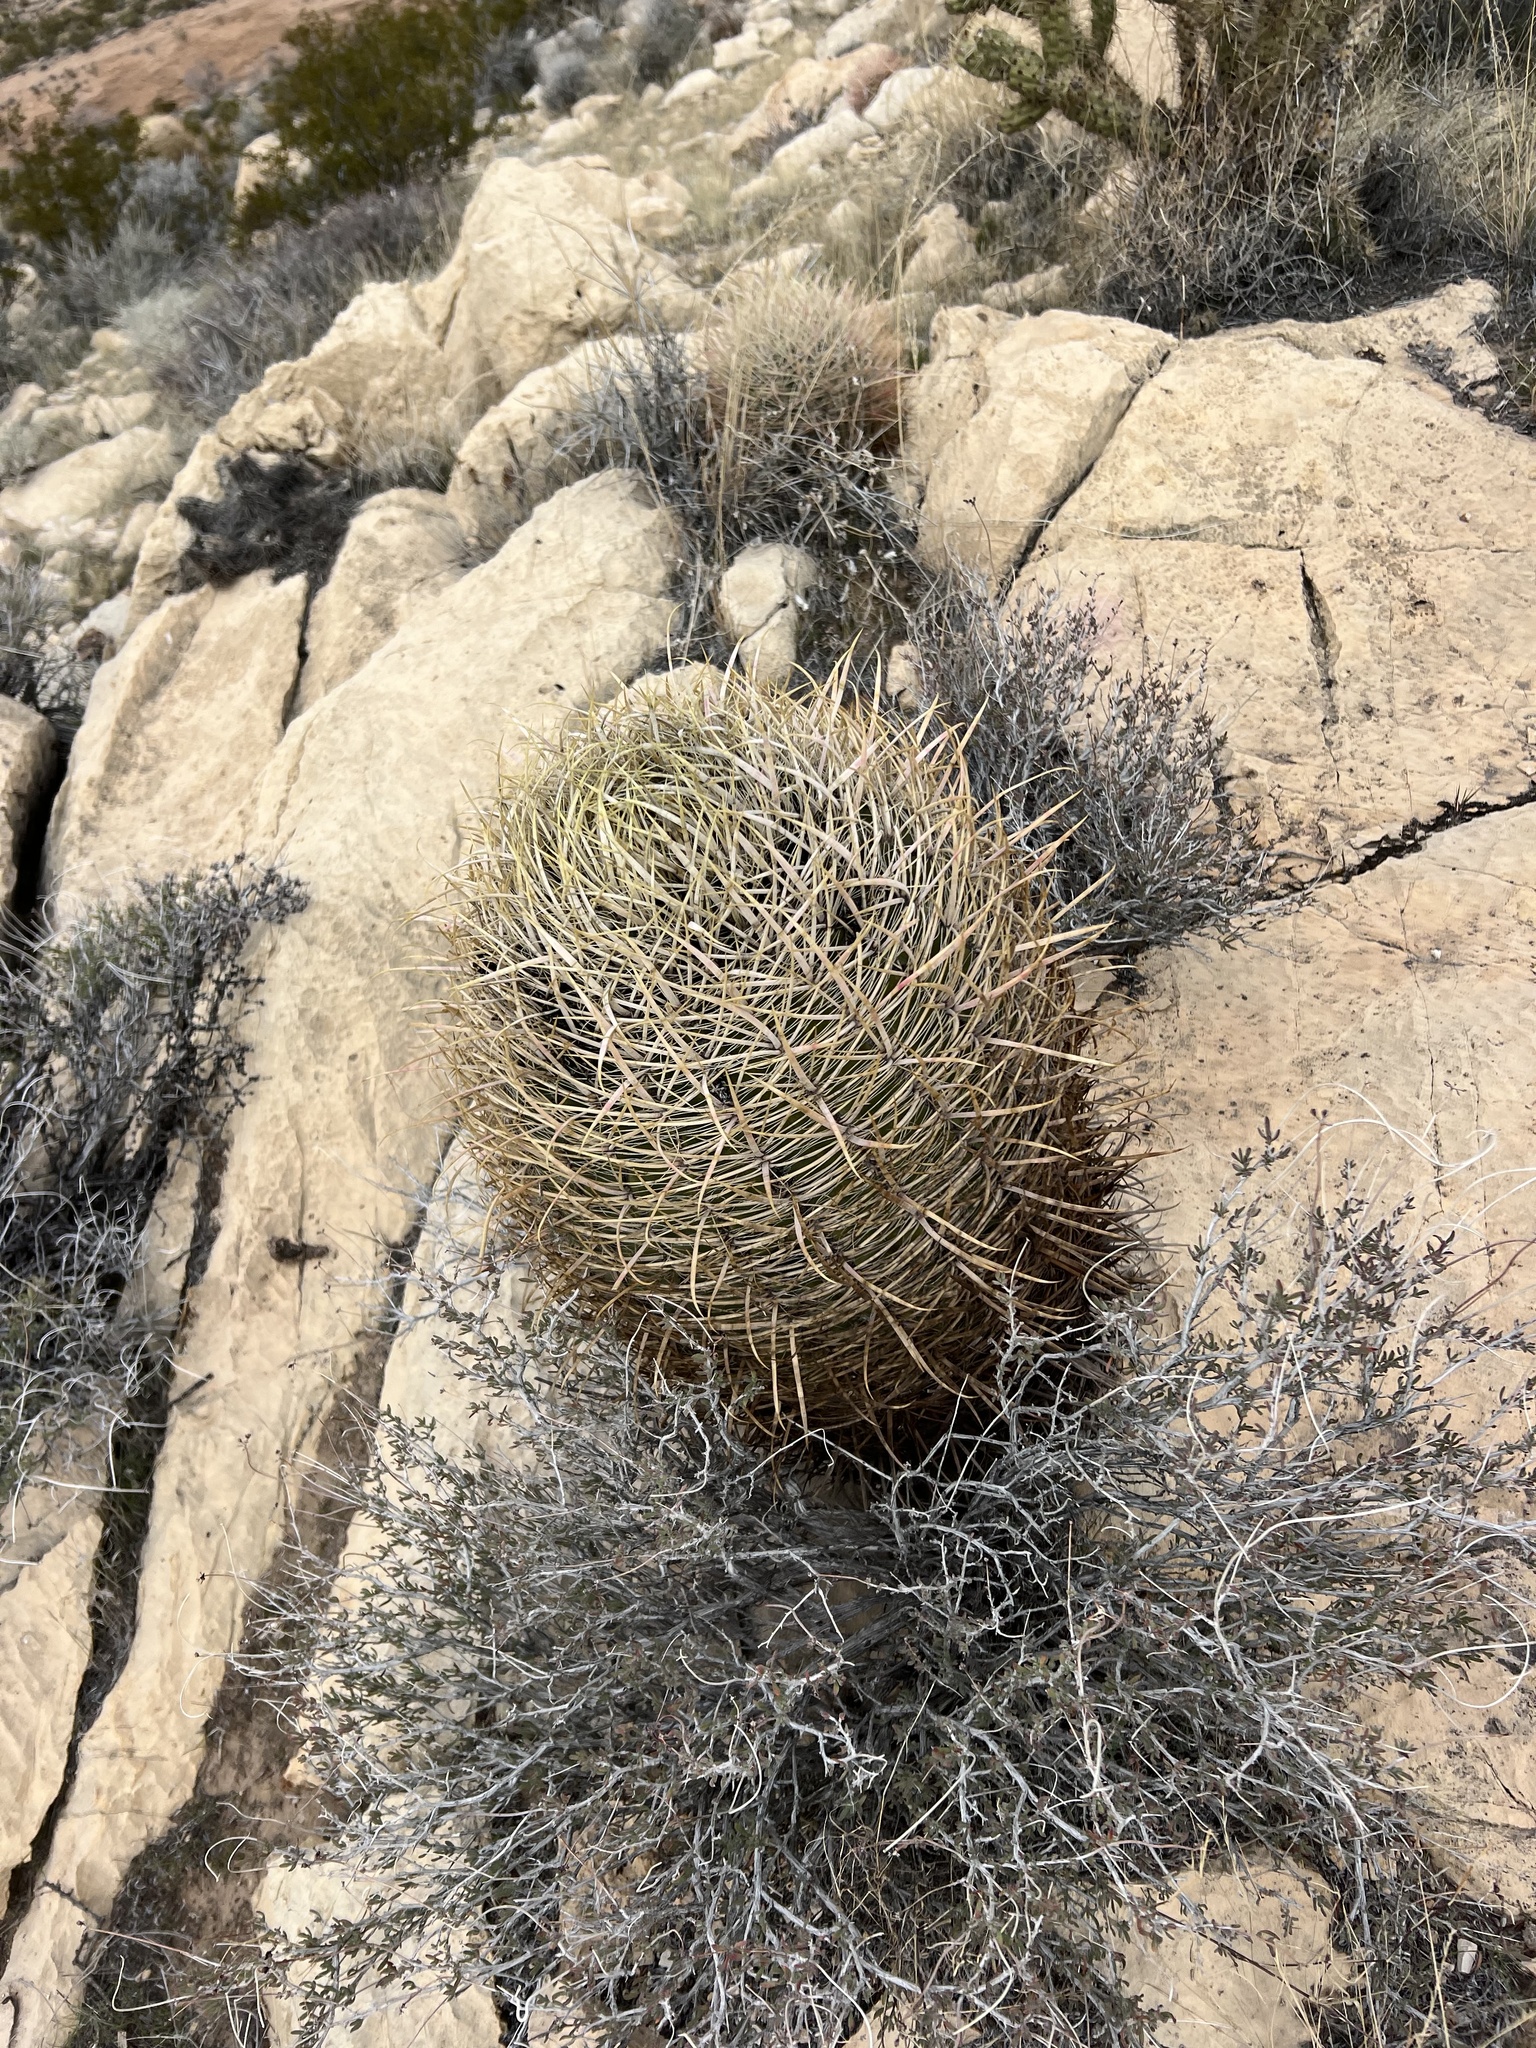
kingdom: Plantae
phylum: Tracheophyta
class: Magnoliopsida
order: Caryophyllales
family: Cactaceae
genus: Ferocactus
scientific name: Ferocactus cylindraceus
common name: California barrel cactus
